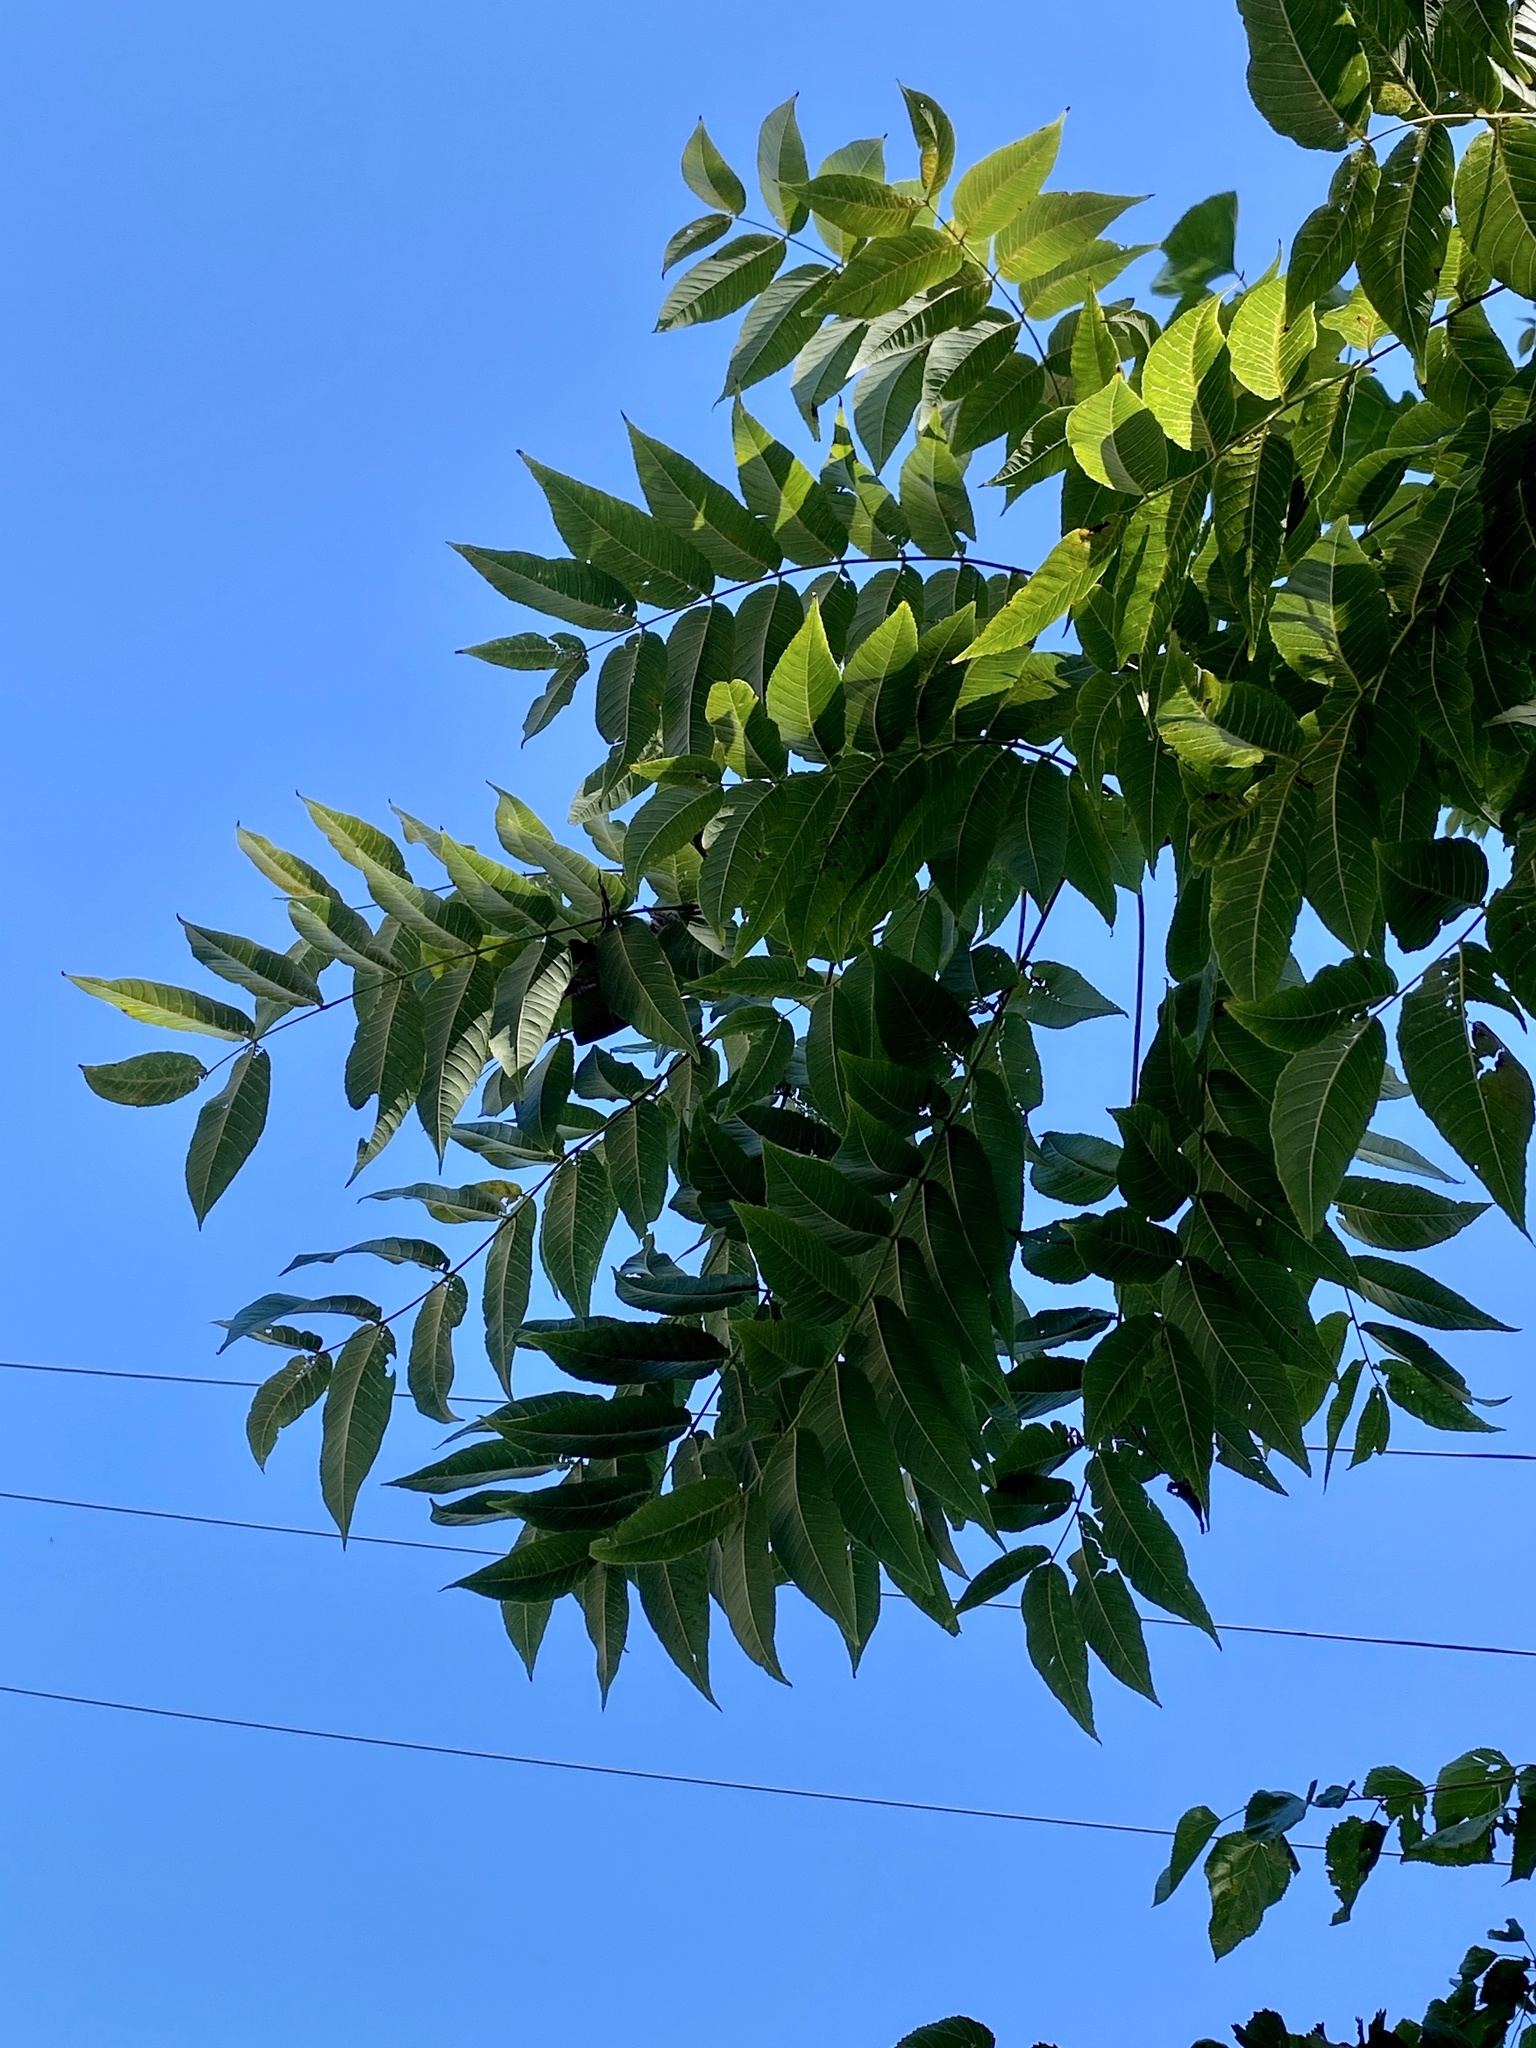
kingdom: Plantae
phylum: Tracheophyta
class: Magnoliopsida
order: Fagales
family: Juglandaceae
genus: Juglans
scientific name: Juglans nigra
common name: Black walnut
